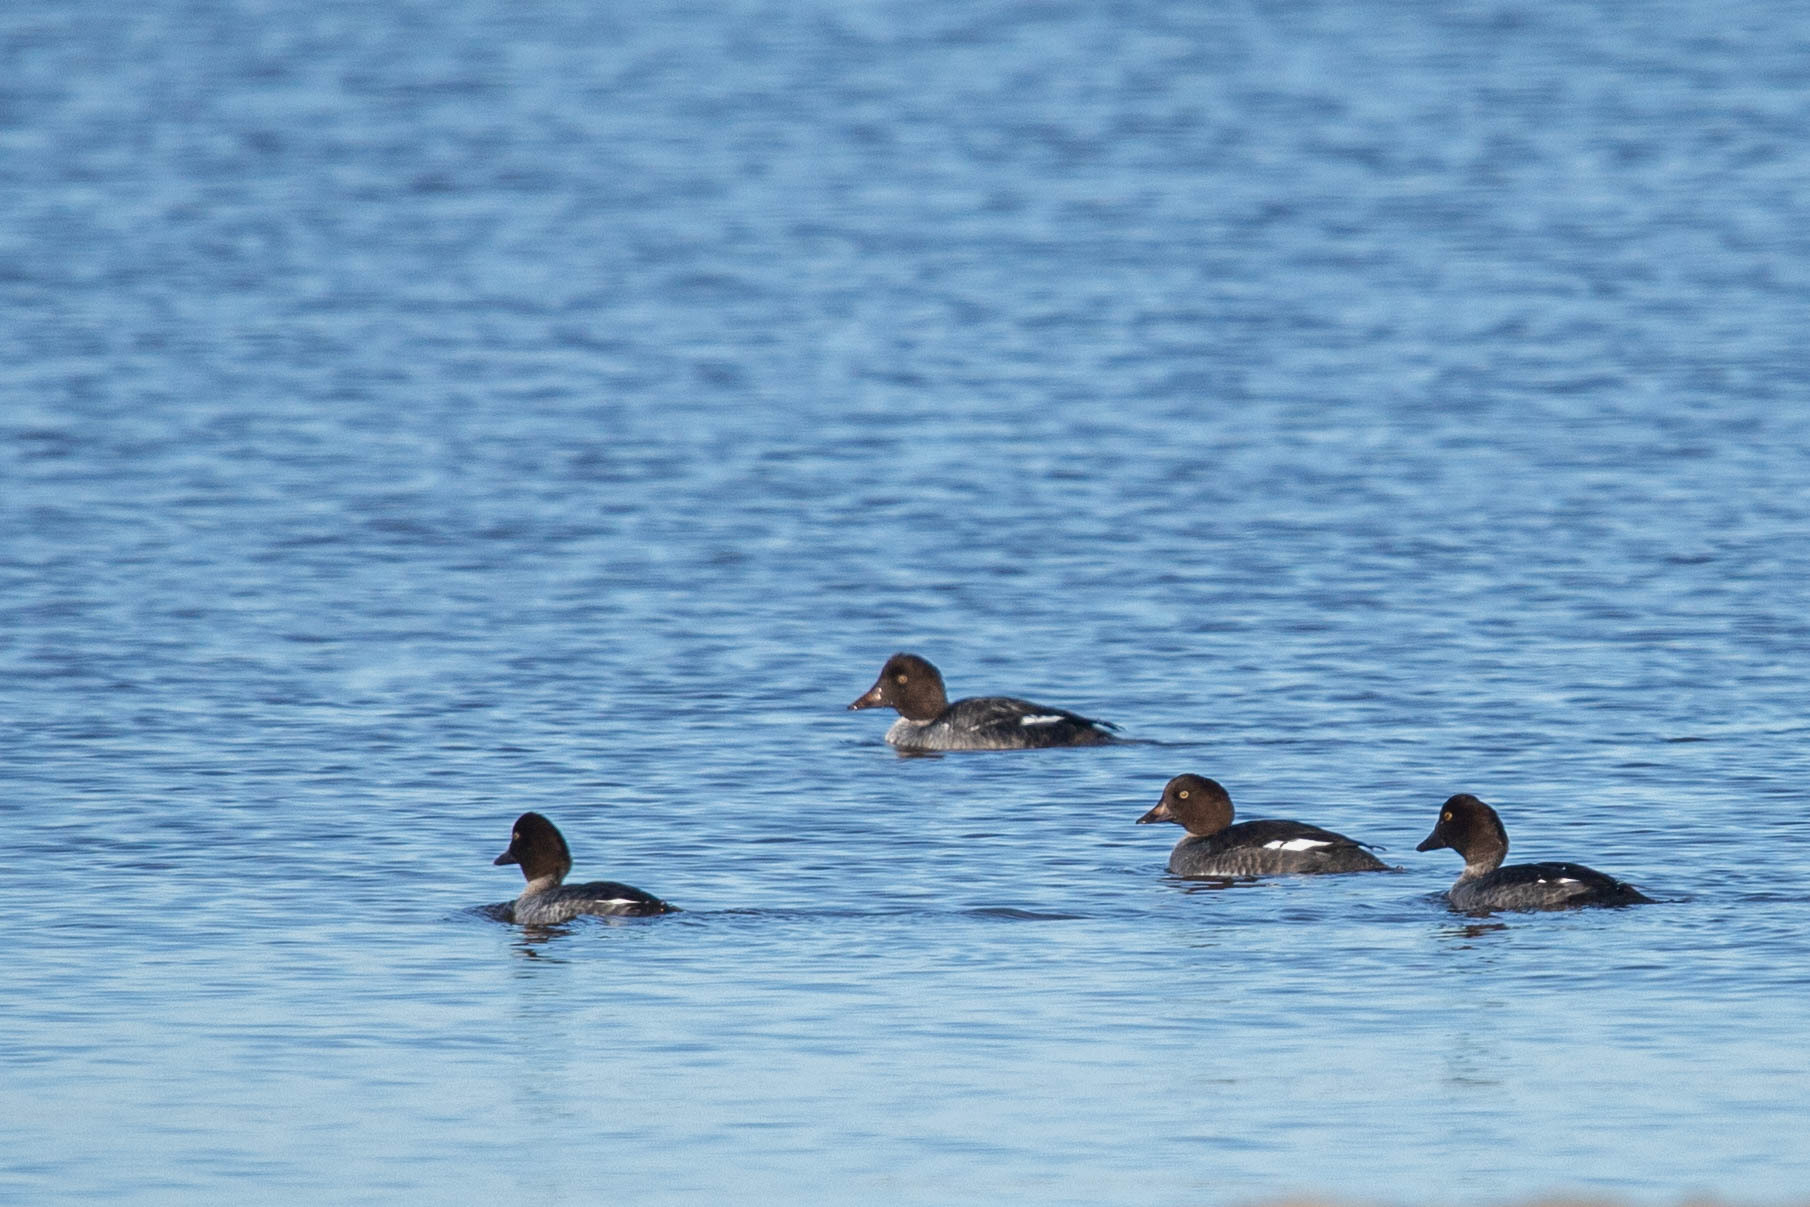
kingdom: Animalia
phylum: Chordata
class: Aves
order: Anseriformes
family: Anatidae
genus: Bucephala
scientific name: Bucephala clangula
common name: Common goldeneye
